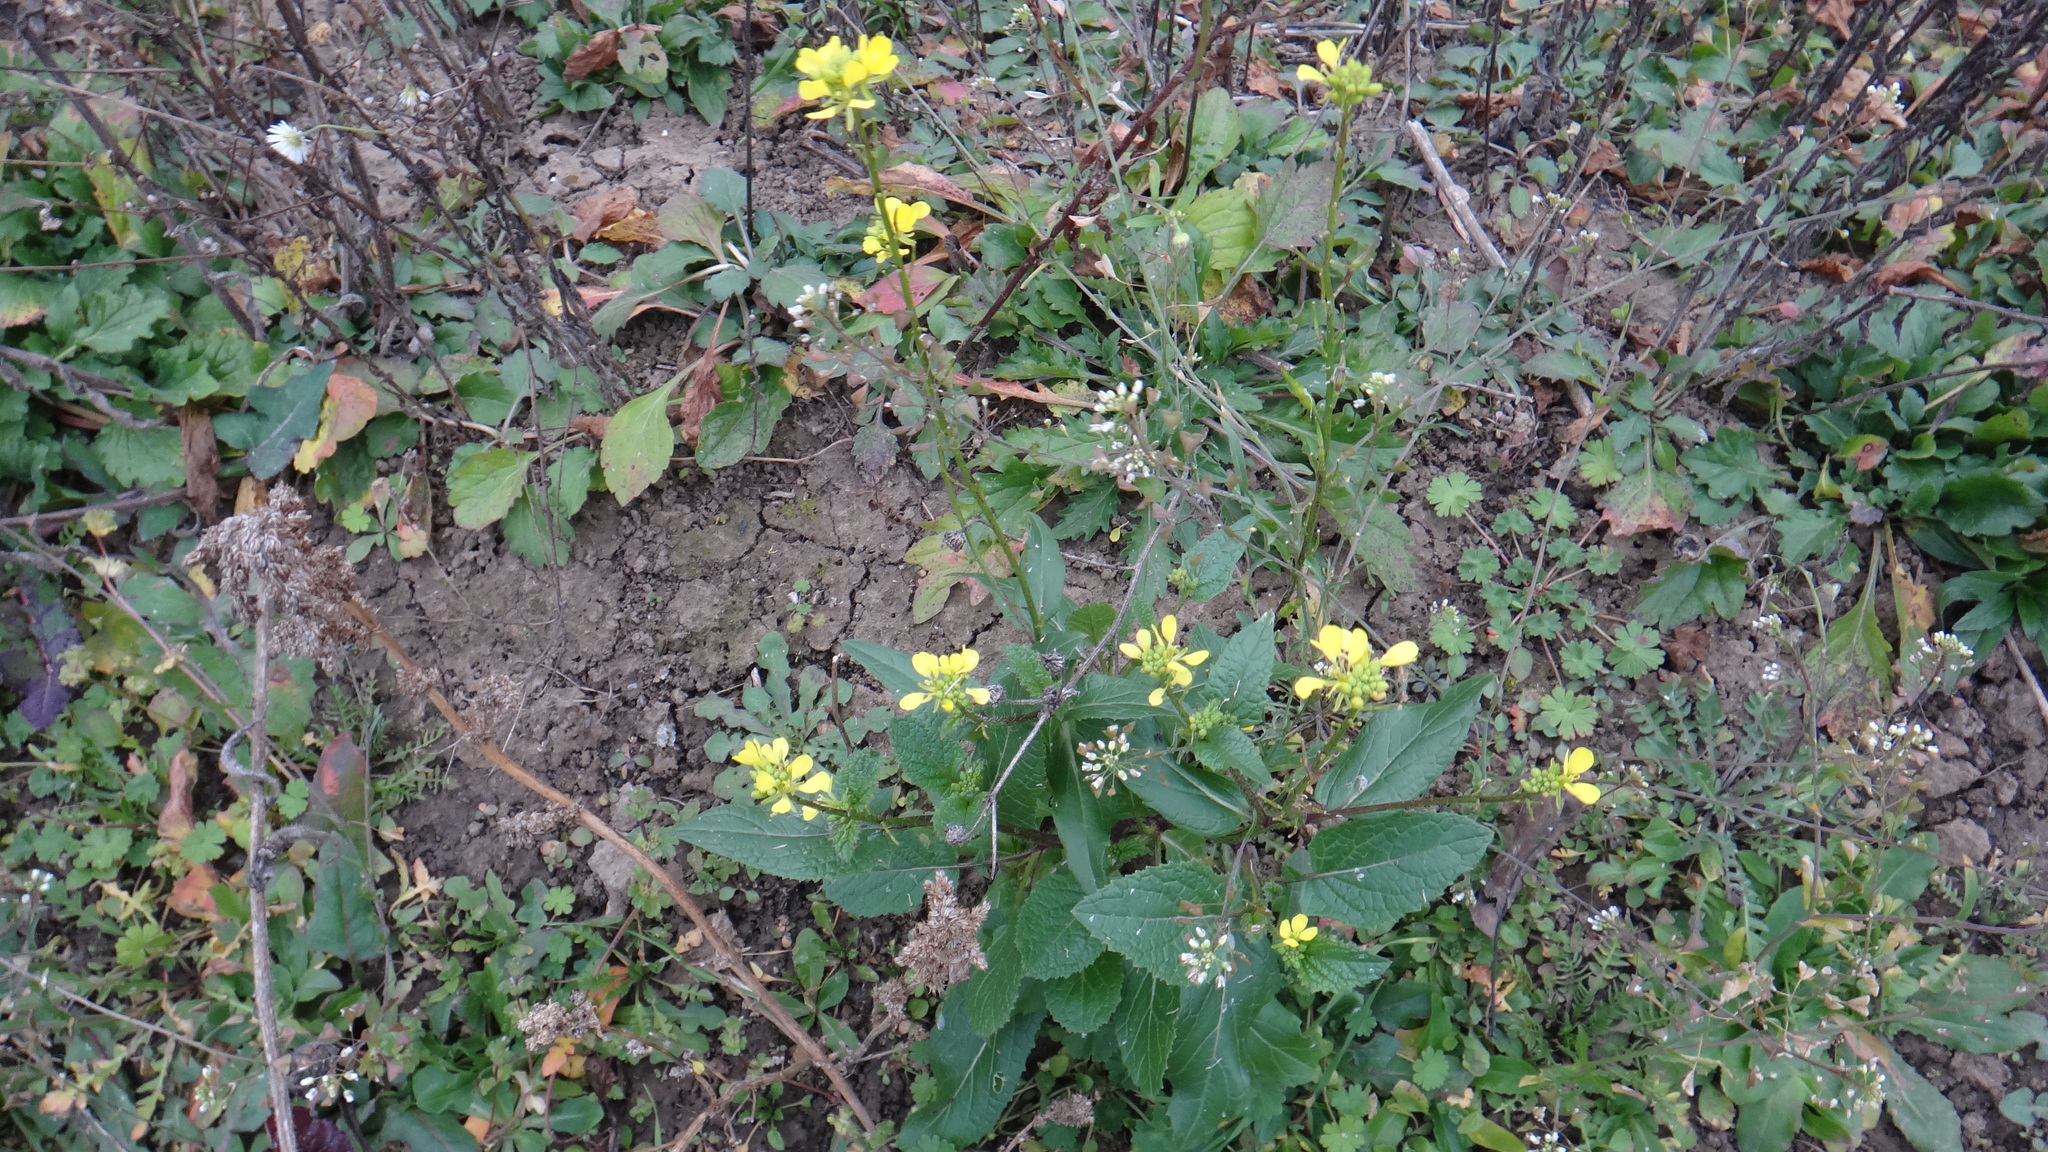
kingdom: Plantae
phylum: Tracheophyta
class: Magnoliopsida
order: Brassicales
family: Brassicaceae
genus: Sinapis
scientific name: Sinapis arvensis
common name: Charlock
